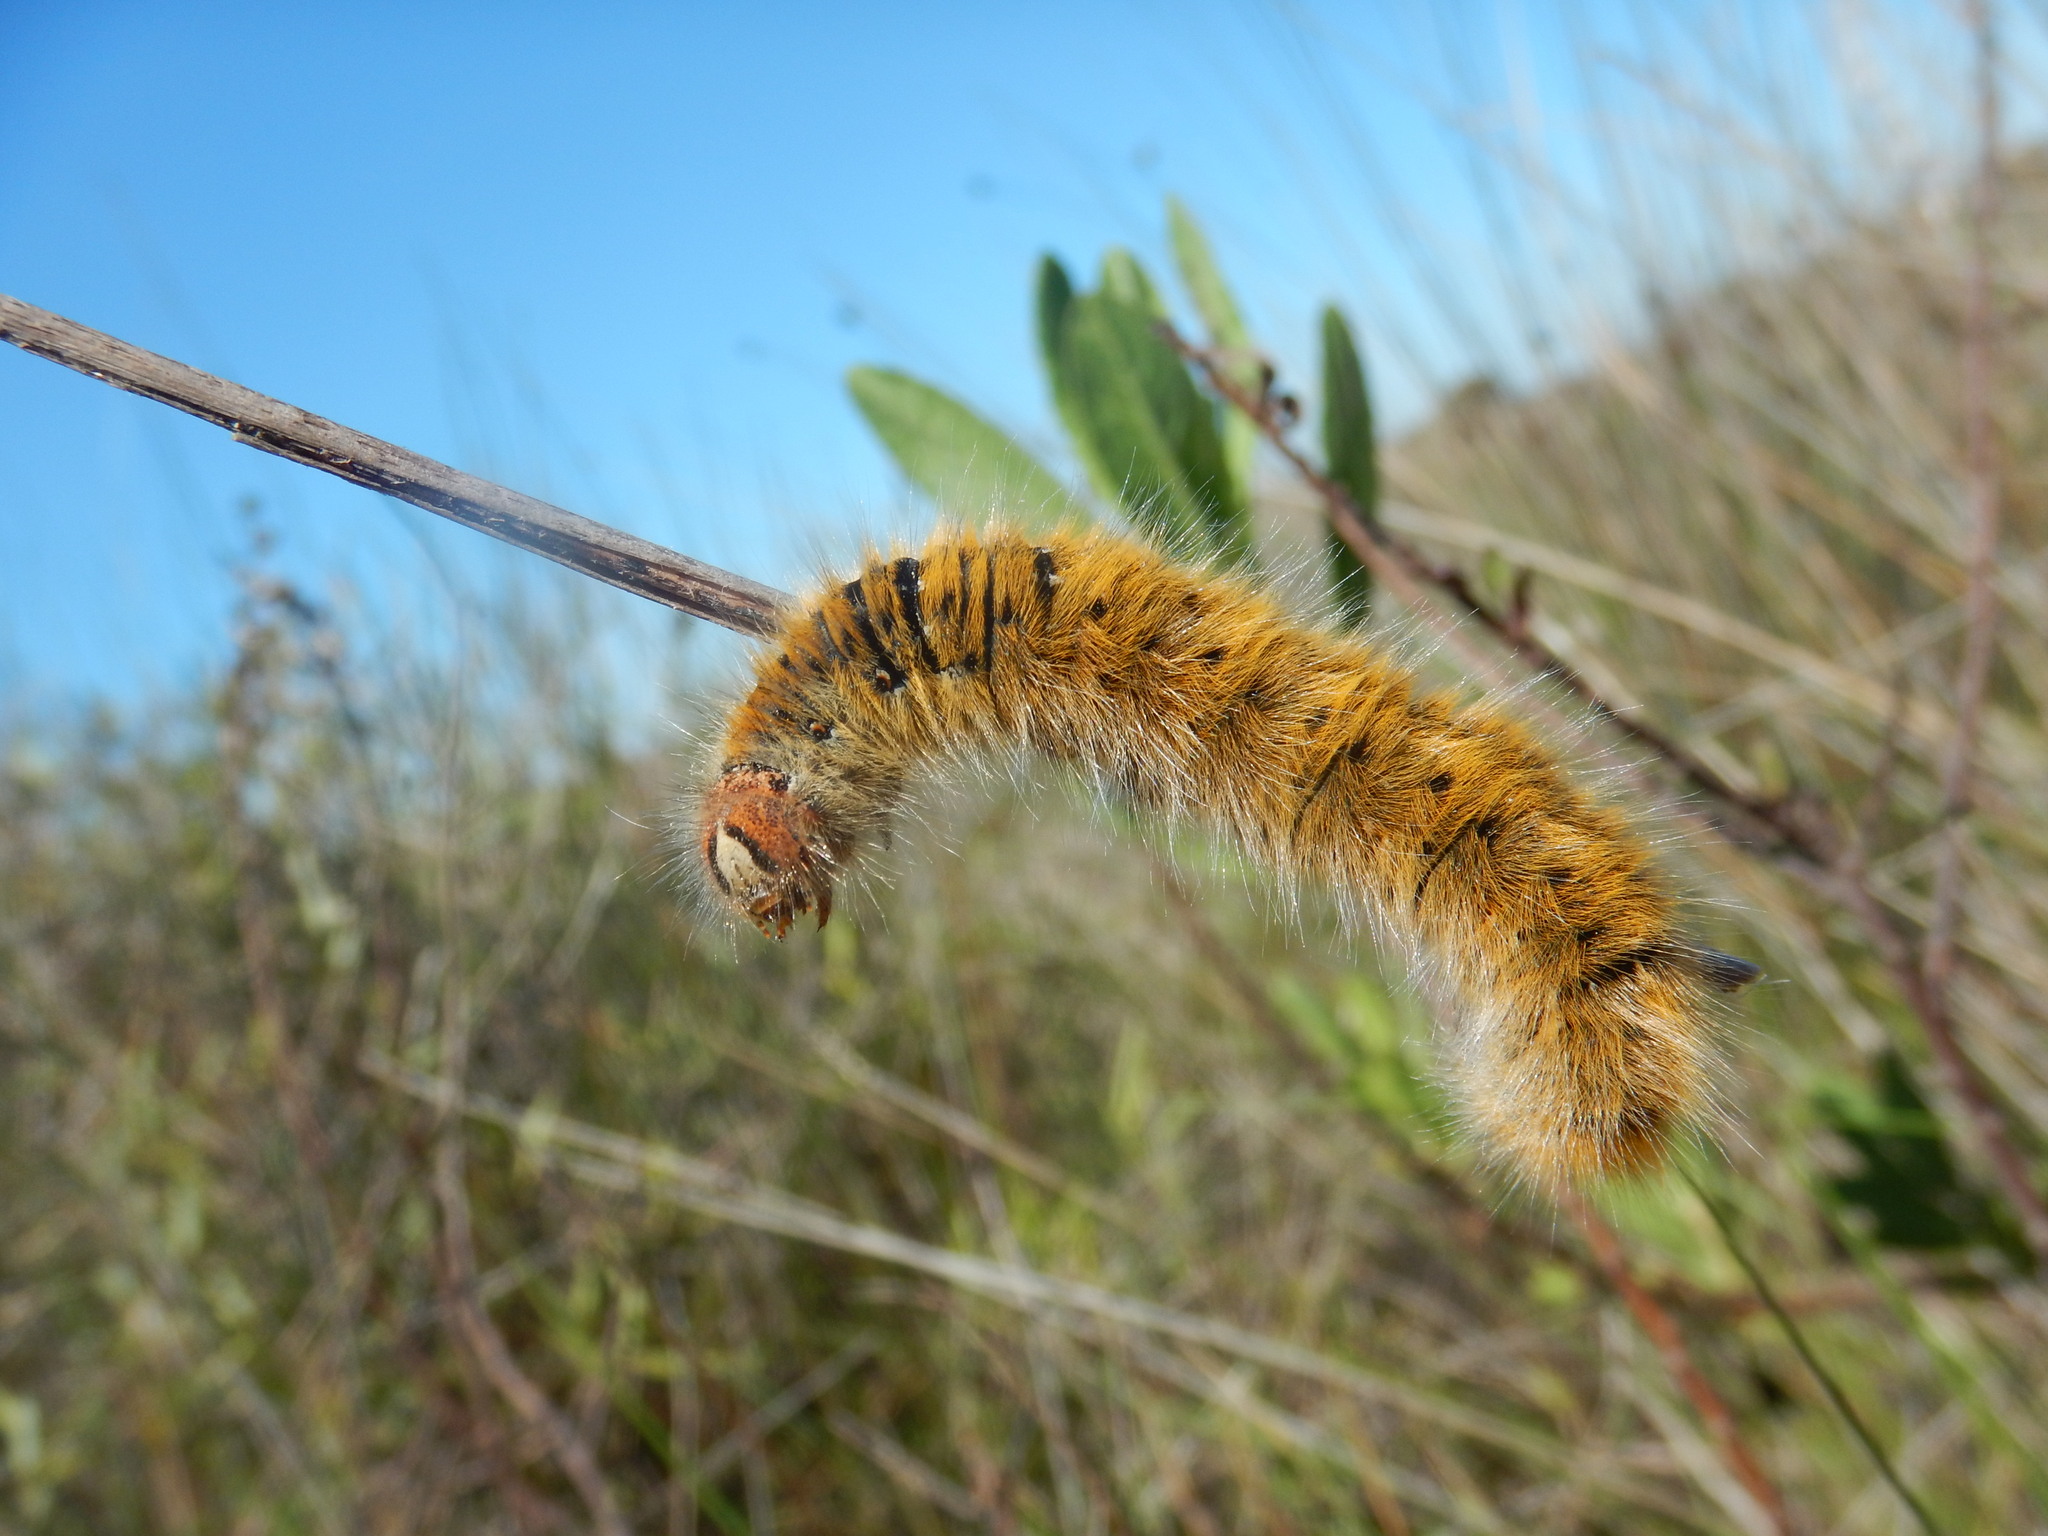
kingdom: Animalia
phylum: Arthropoda
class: Insecta
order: Lepidoptera
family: Lasiocampidae
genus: Lasiocampa
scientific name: Lasiocampa trifolii
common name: Grass eggar
